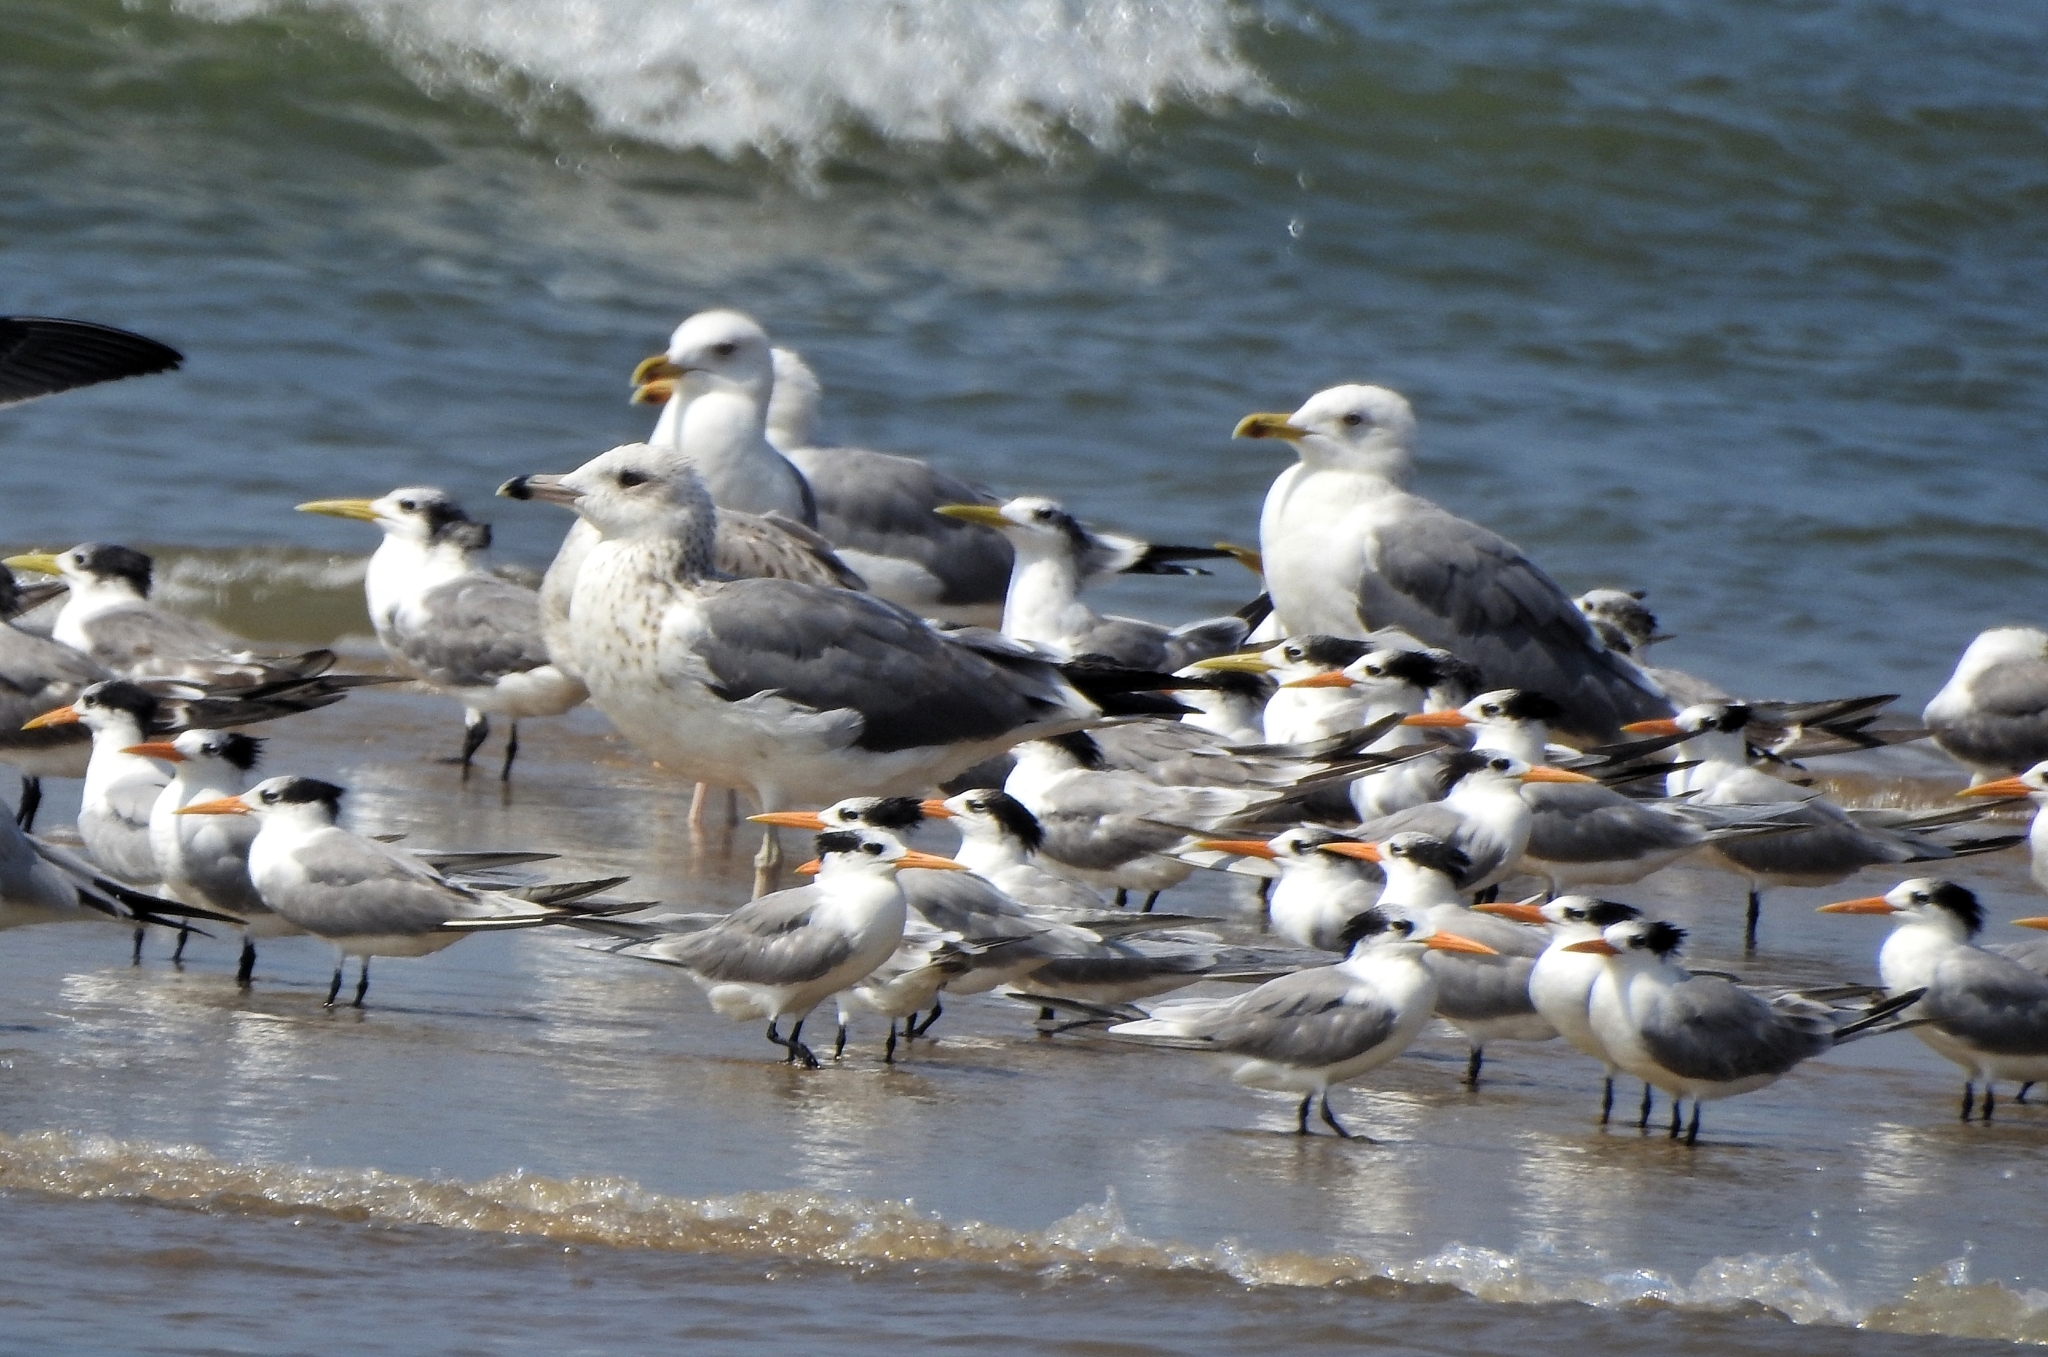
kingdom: Animalia
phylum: Chordata
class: Aves
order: Charadriiformes
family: Laridae
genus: Thalasseus
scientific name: Thalasseus bengalensis
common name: Lesser crested tern
